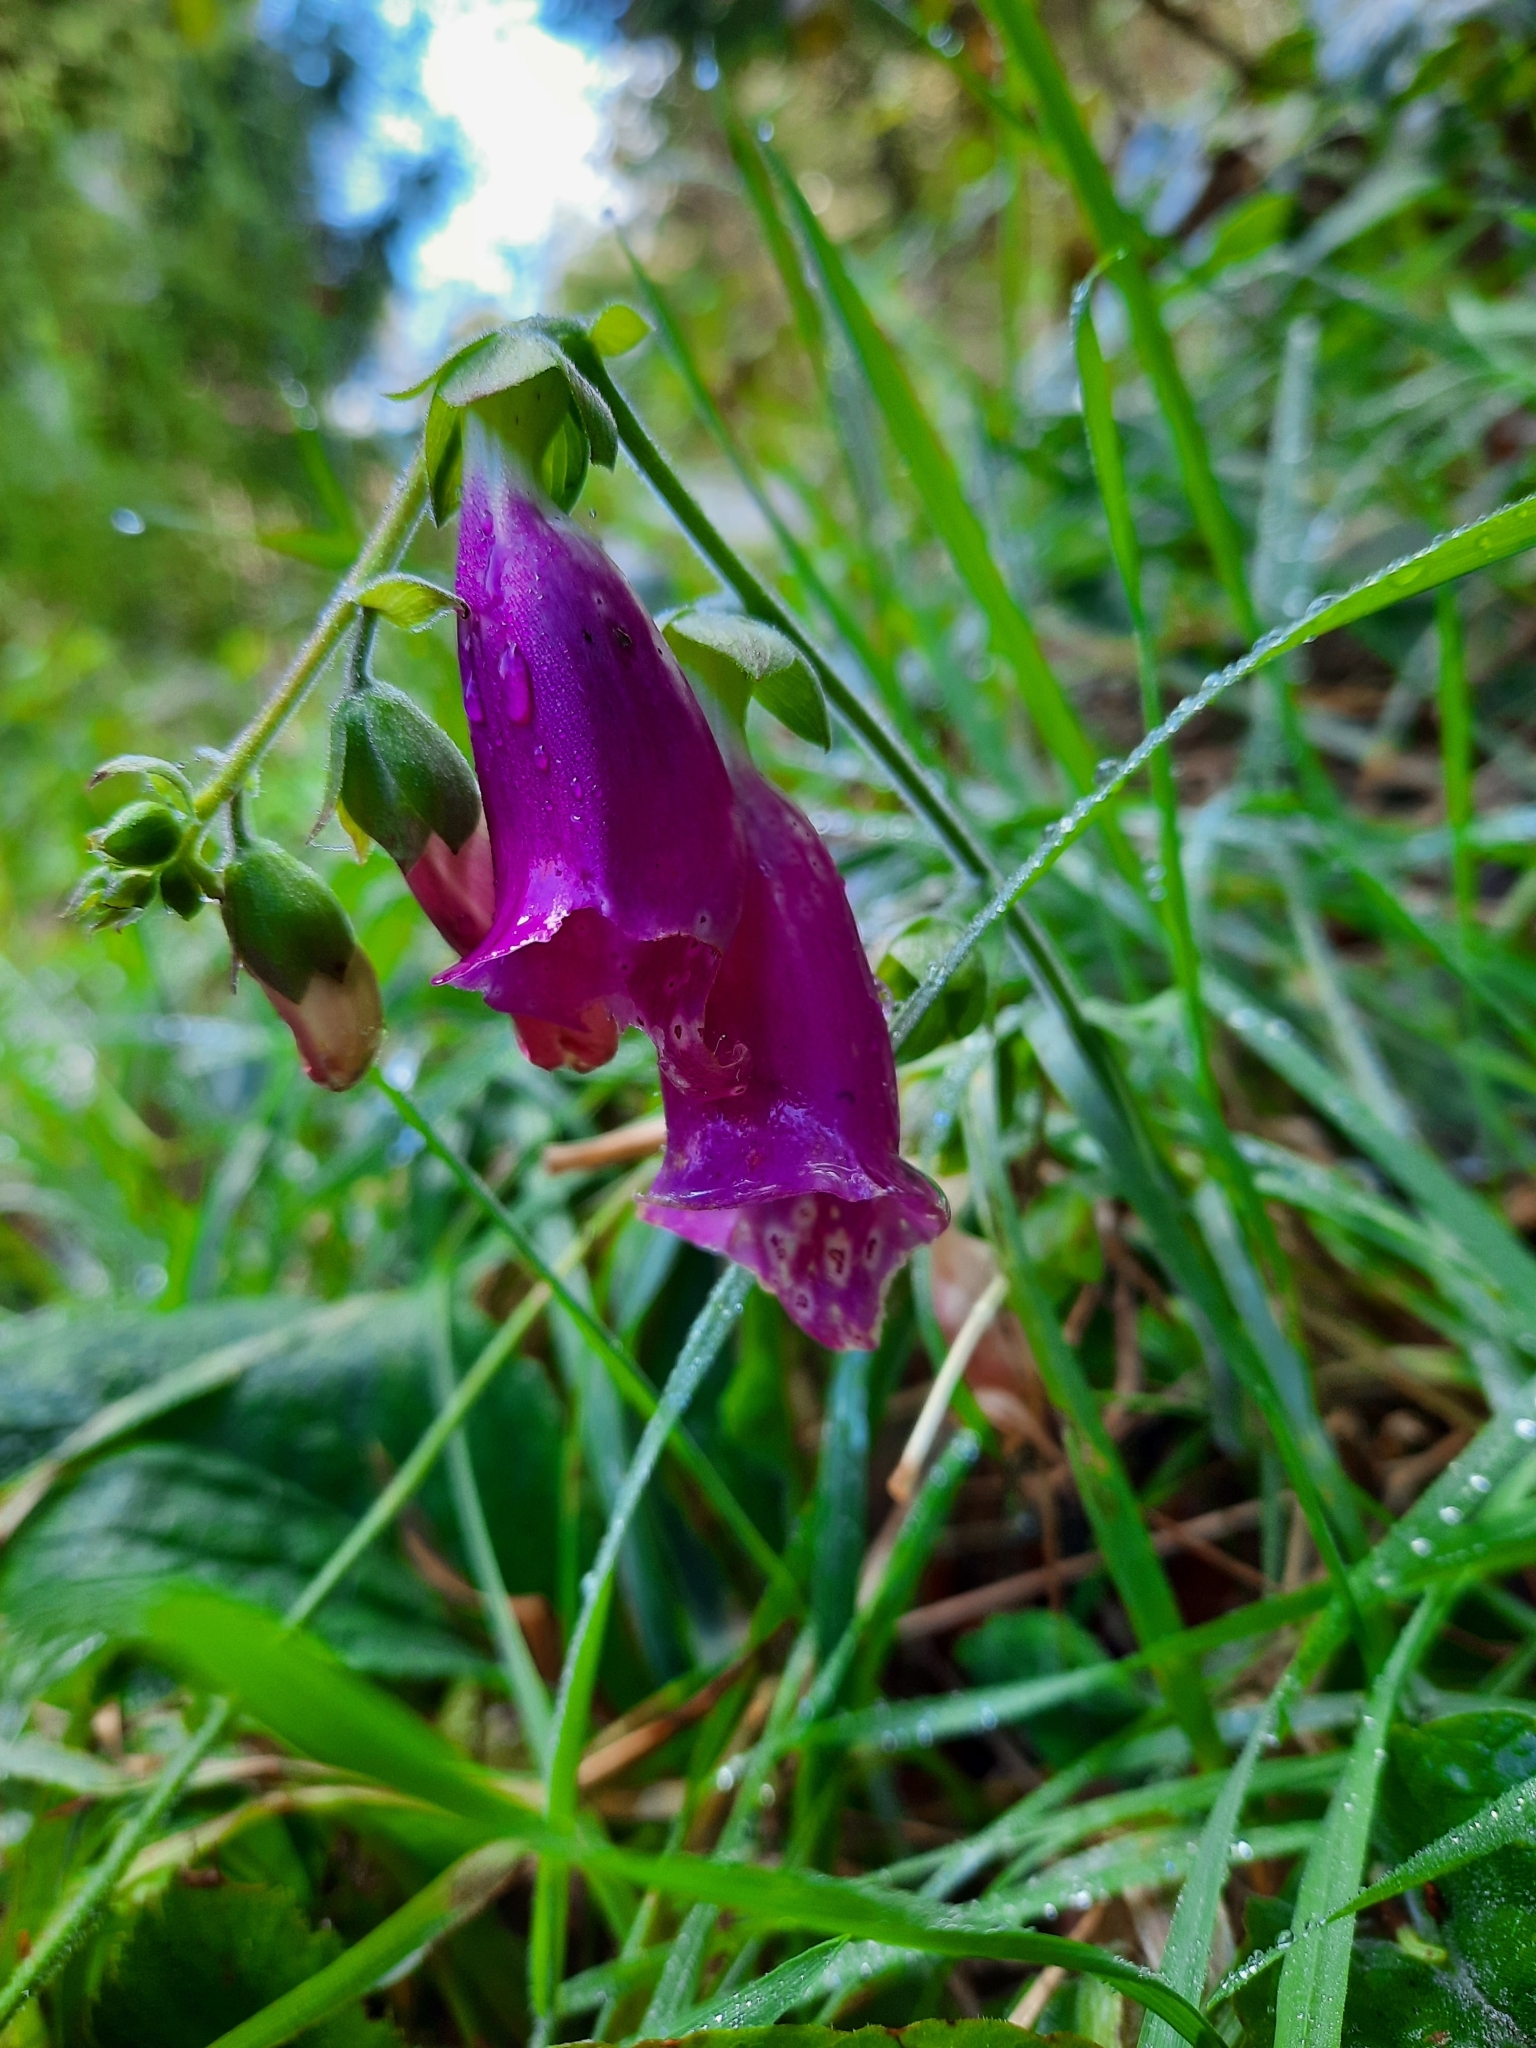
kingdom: Plantae
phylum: Tracheophyta
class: Magnoliopsida
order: Lamiales
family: Plantaginaceae
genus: Digitalis
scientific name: Digitalis purpurea
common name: Foxglove
